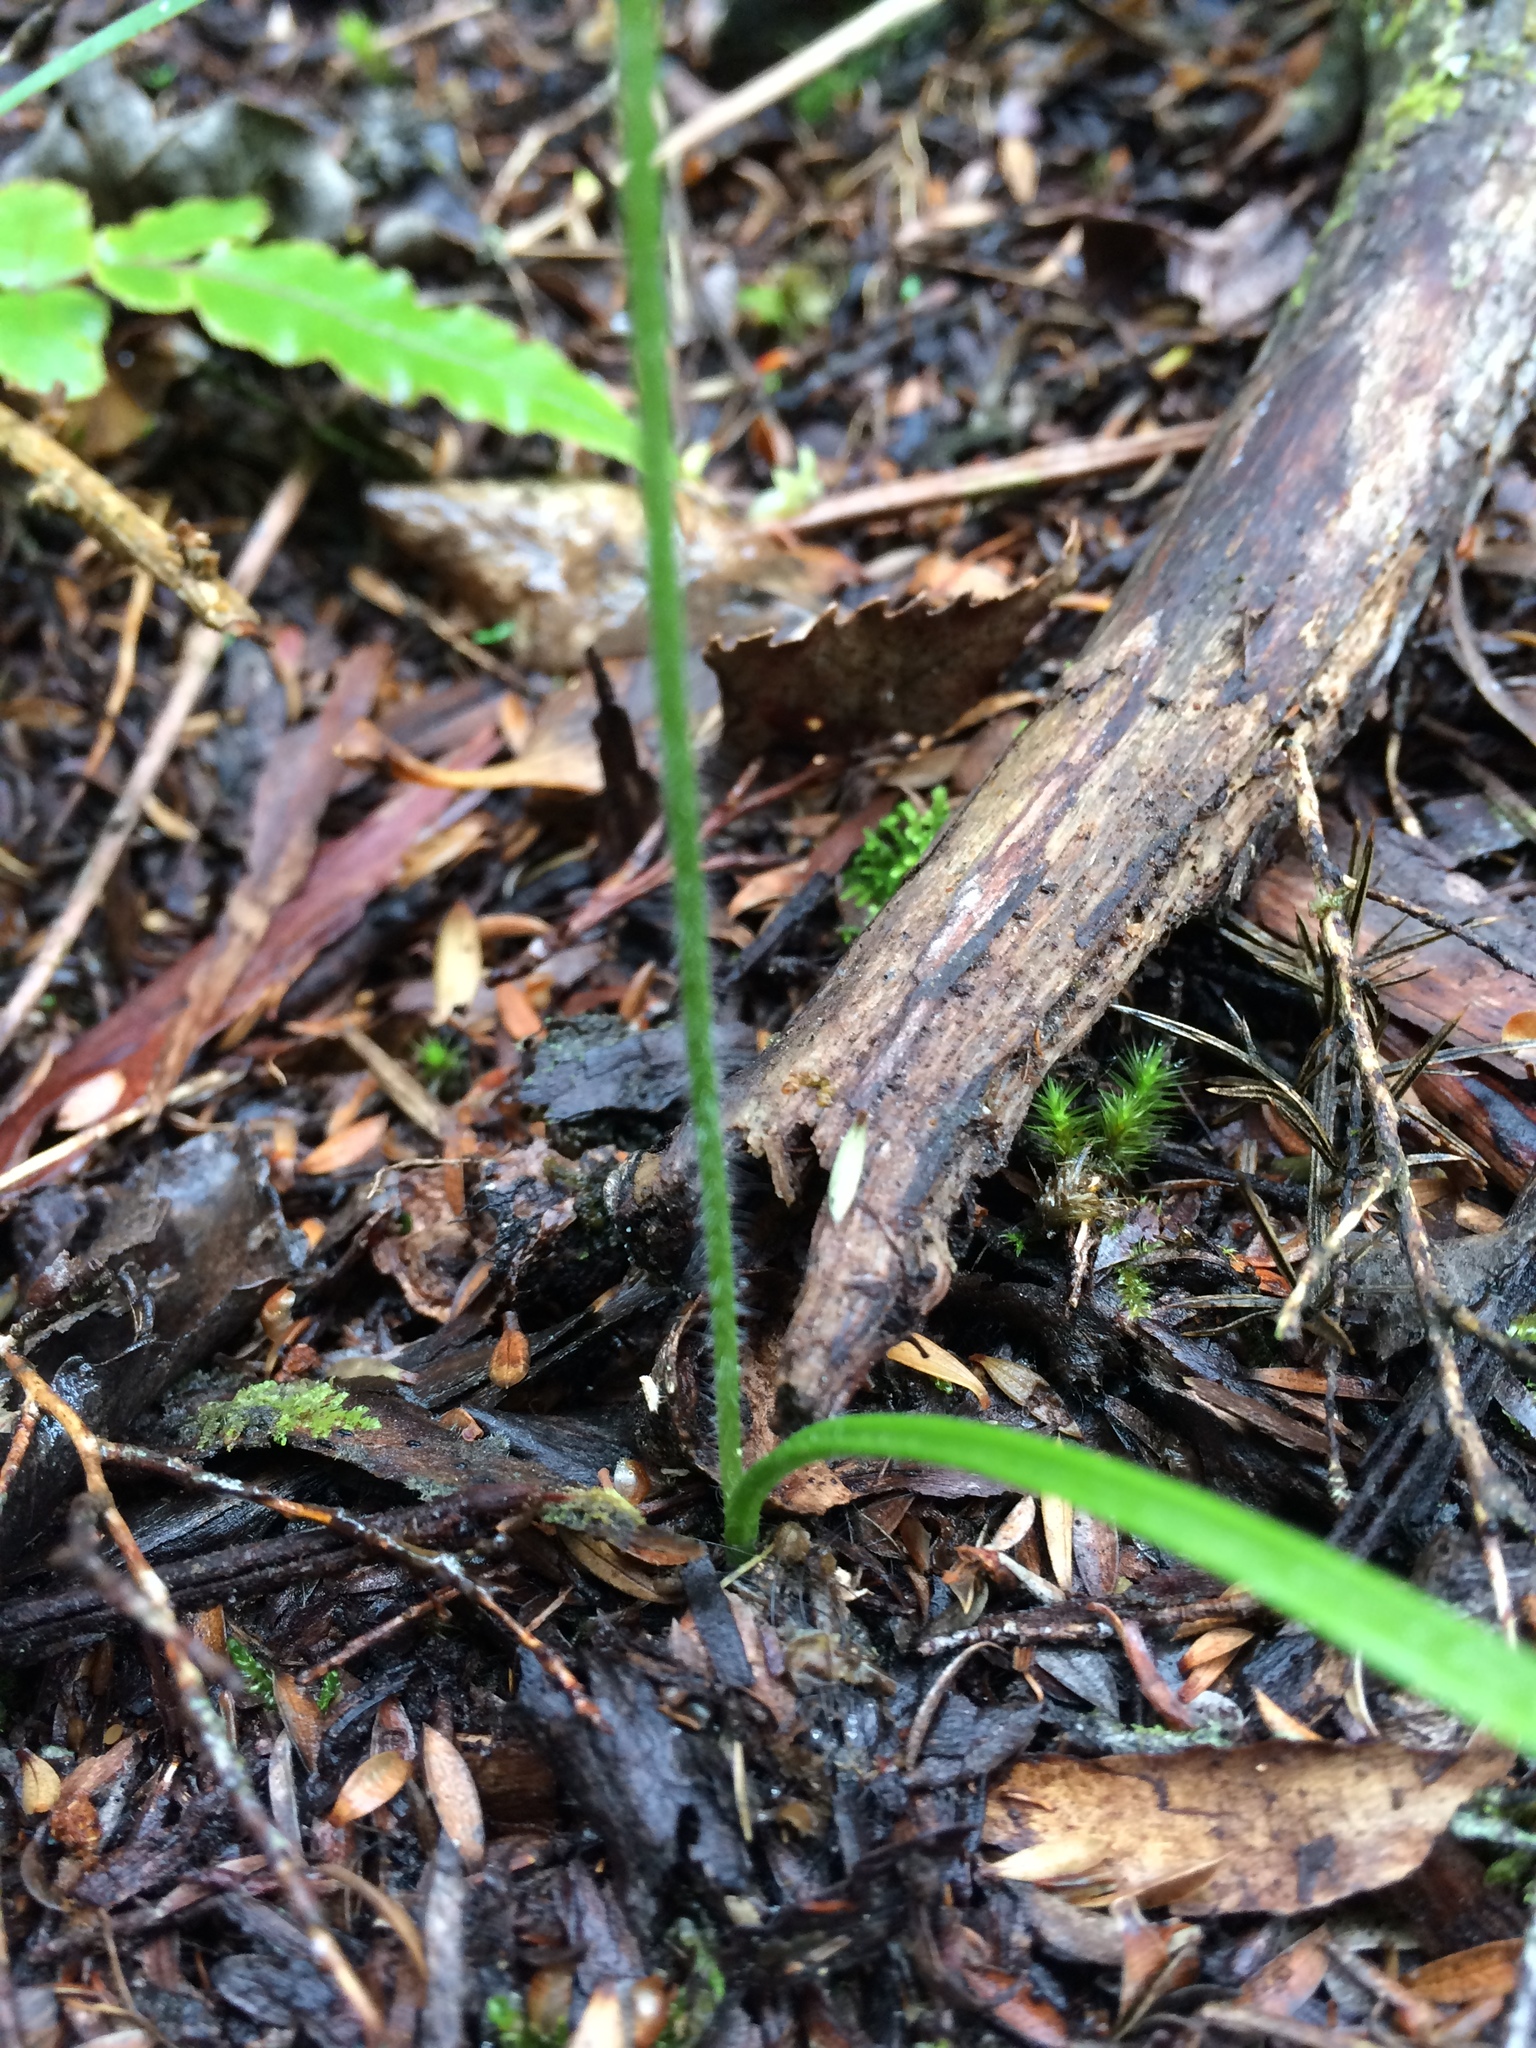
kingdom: Plantae
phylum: Tracheophyta
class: Liliopsida
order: Asparagales
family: Orchidaceae
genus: Caladenia
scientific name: Caladenia chlorostyla
